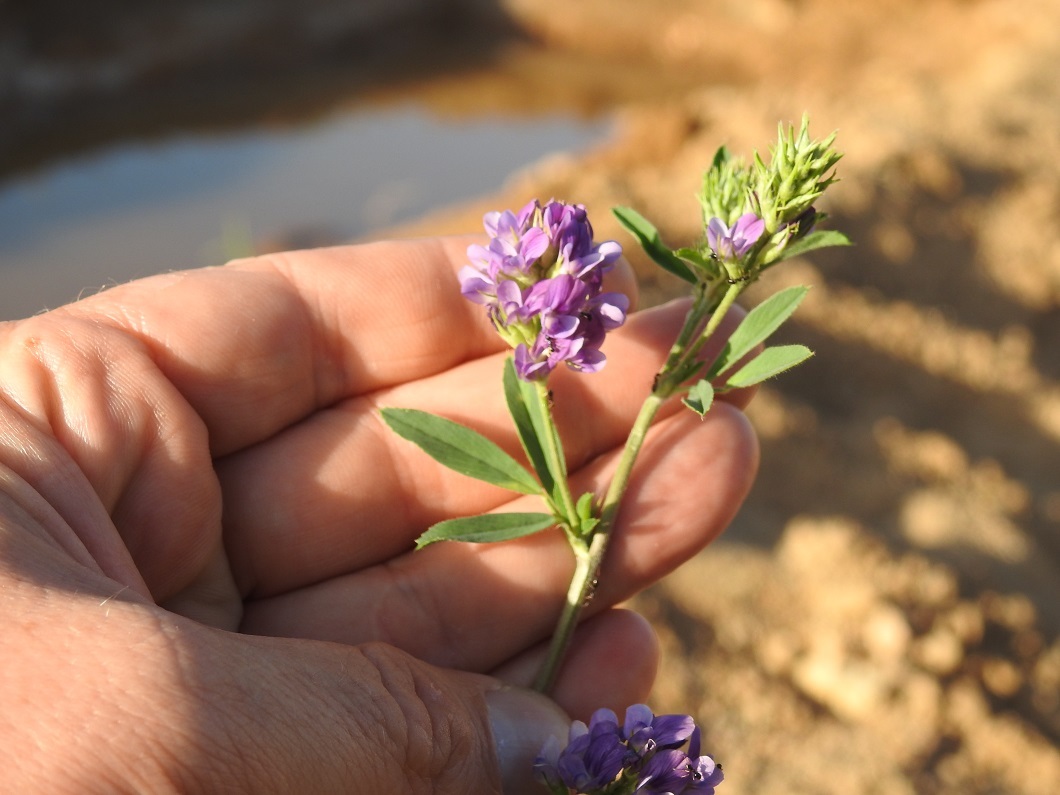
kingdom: Plantae
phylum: Tracheophyta
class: Magnoliopsida
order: Fabales
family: Fabaceae
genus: Medicago
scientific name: Medicago sativa
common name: Alfalfa
